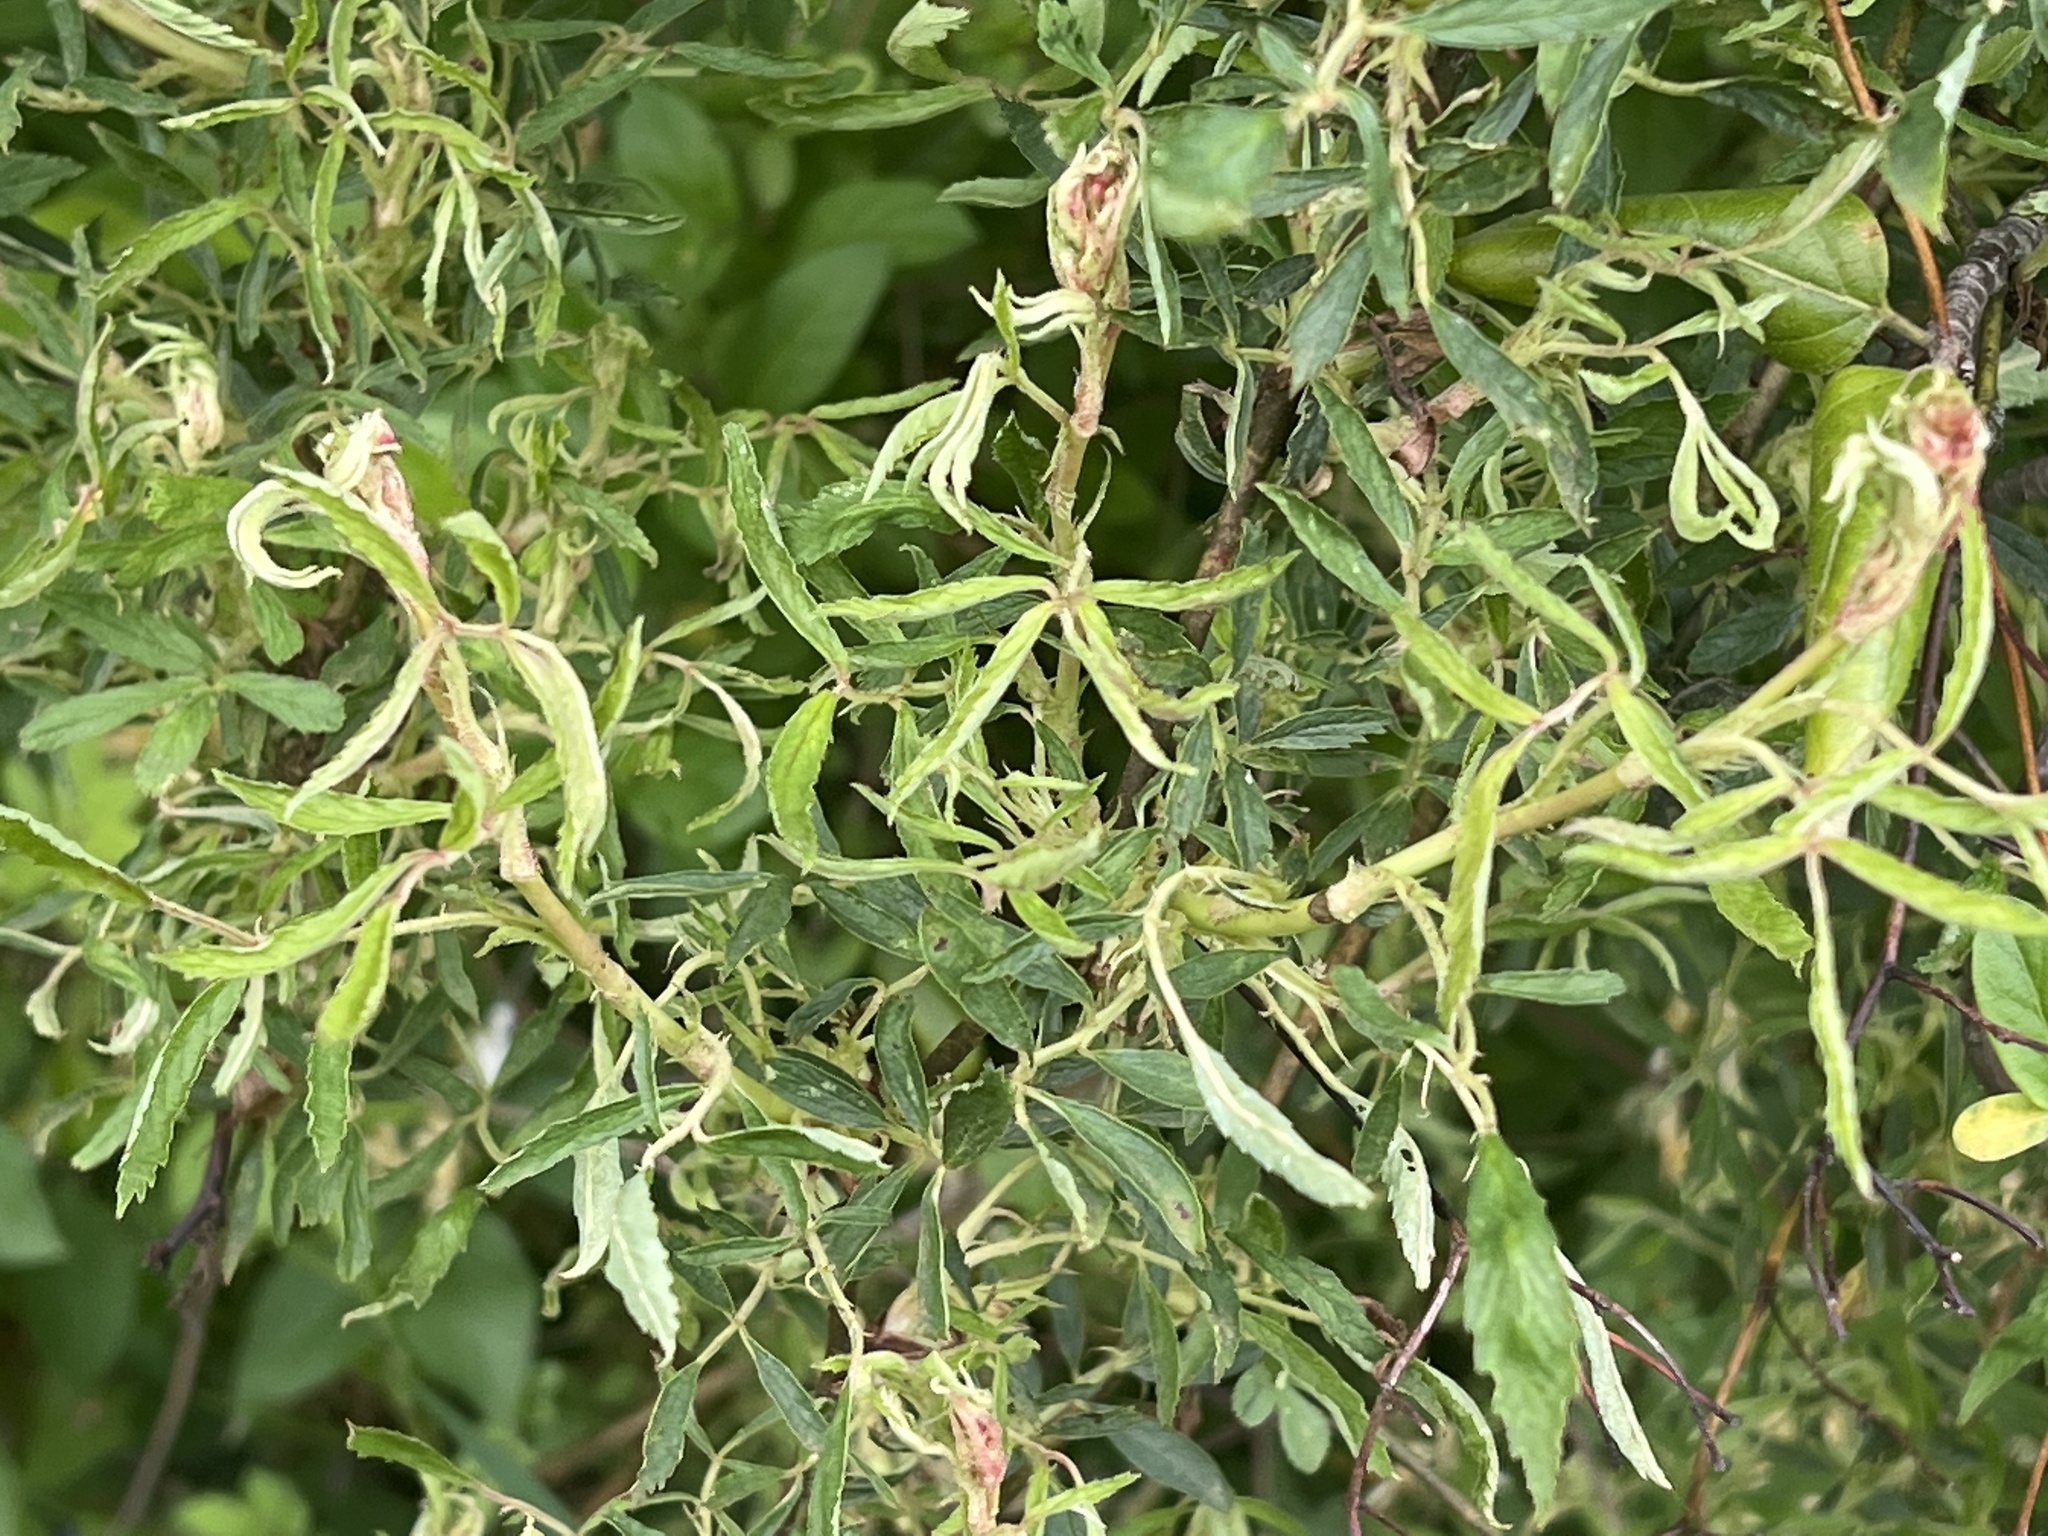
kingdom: Viruses
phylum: Negarnaviricota
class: Ellioviricetes
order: Bunyavirales
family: Fimoviridae
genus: Emaravirus
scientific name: Emaravirus rosae
